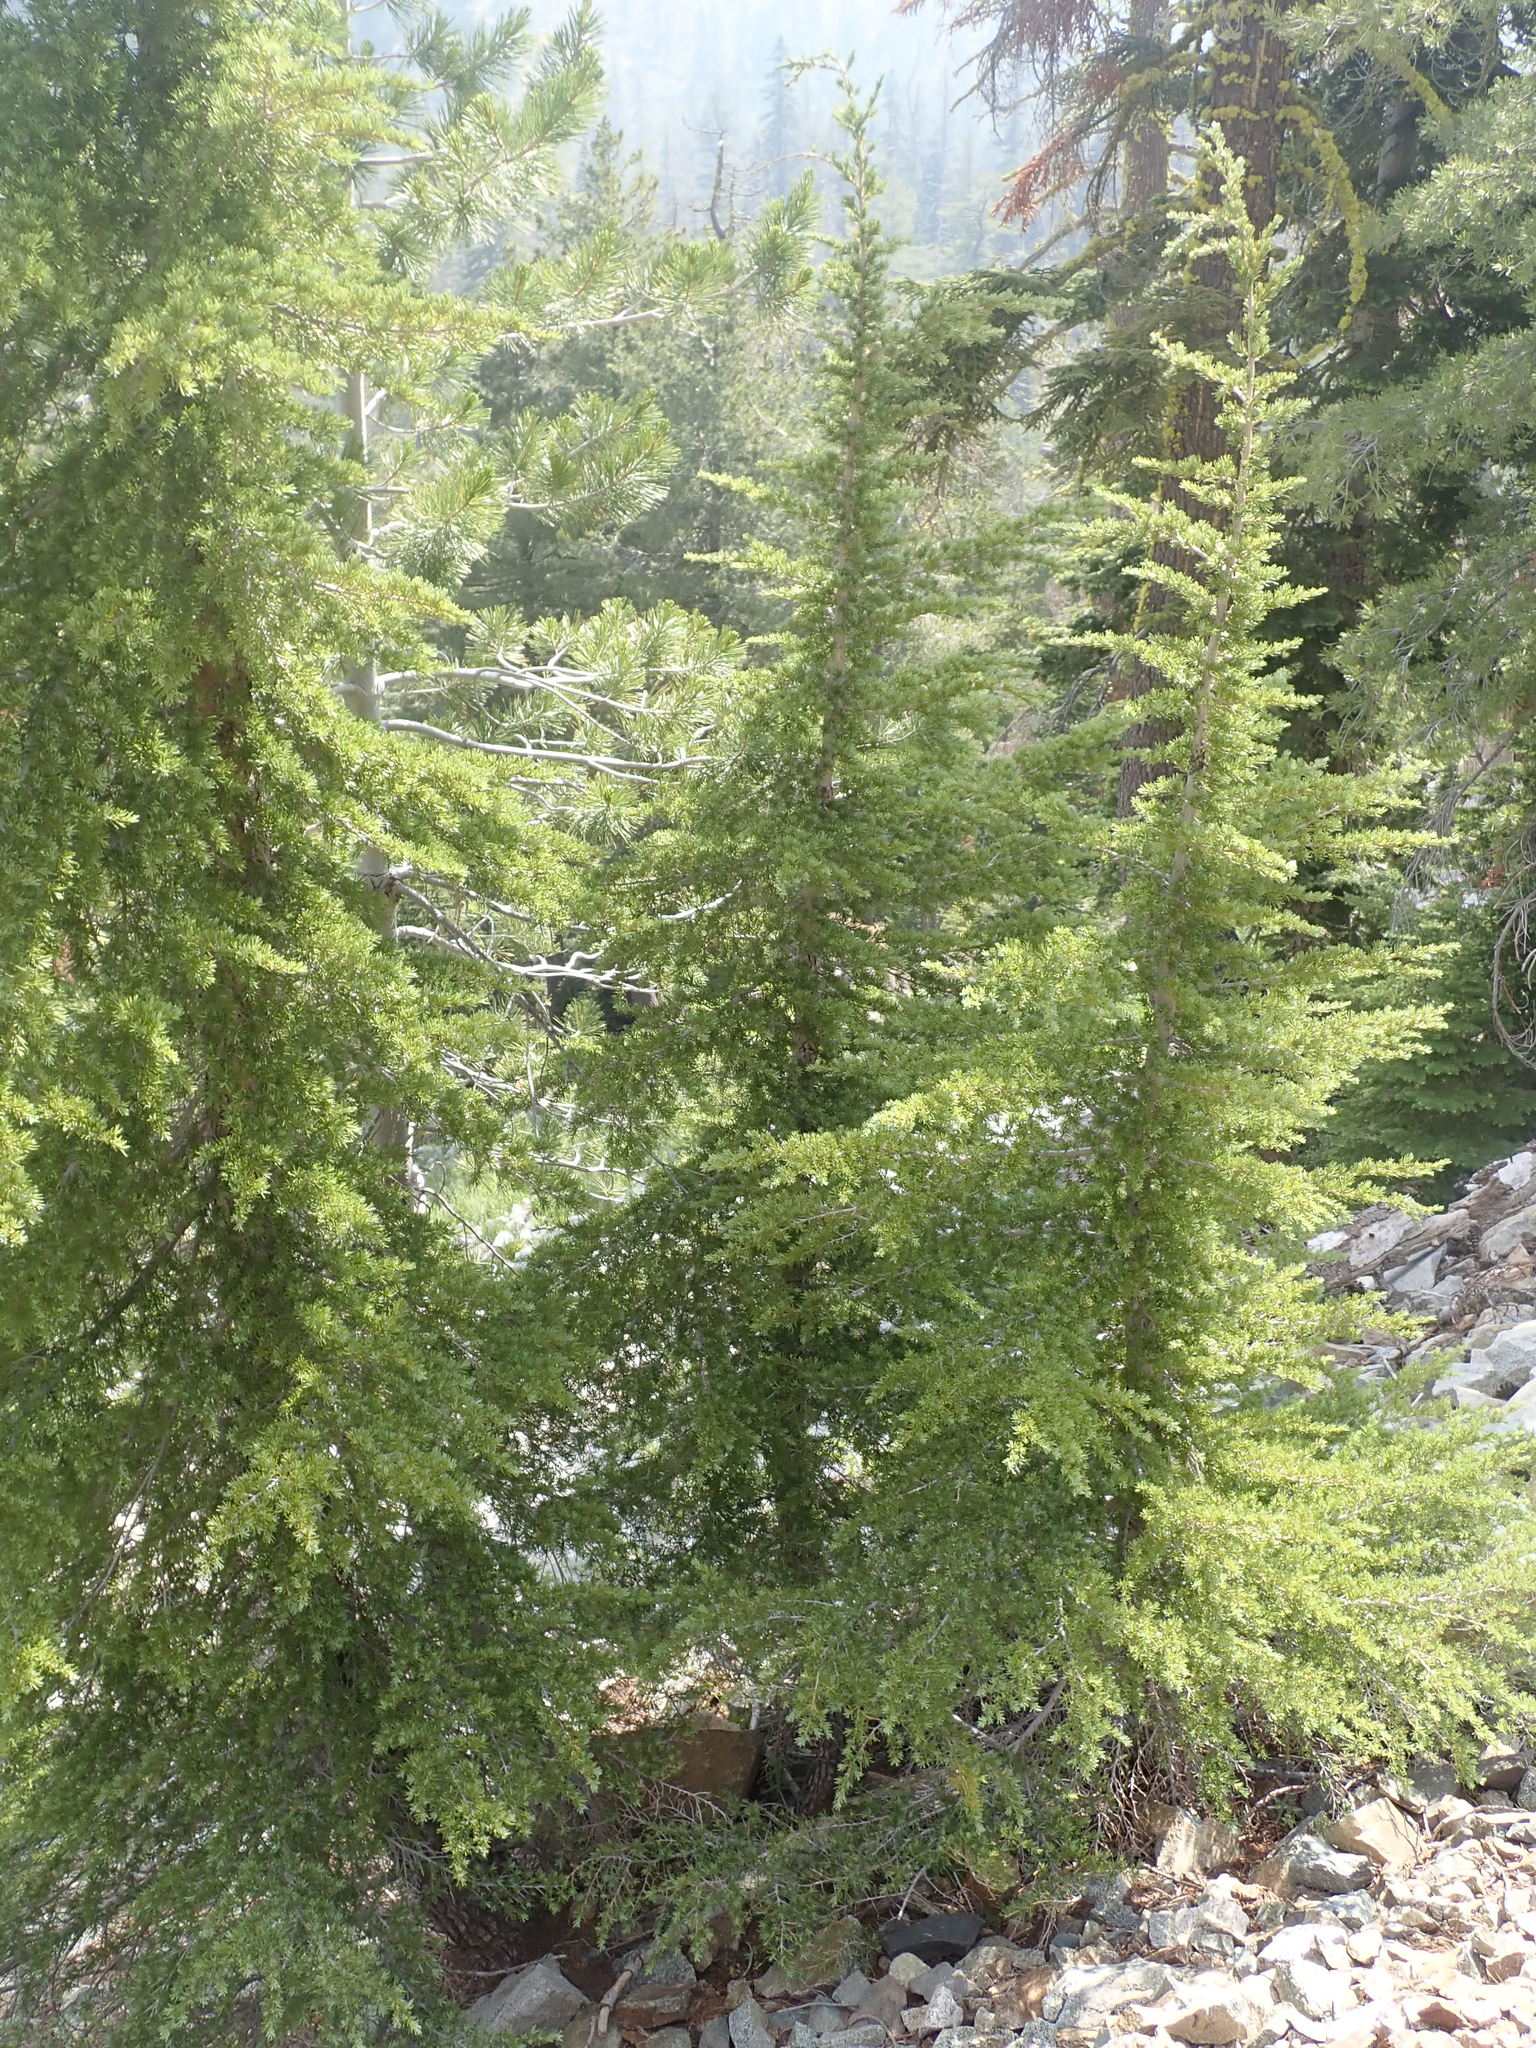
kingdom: Plantae
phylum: Tracheophyta
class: Pinopsida
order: Pinales
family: Pinaceae
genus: Tsuga
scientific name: Tsuga mertensiana
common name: Mountain hemlock
